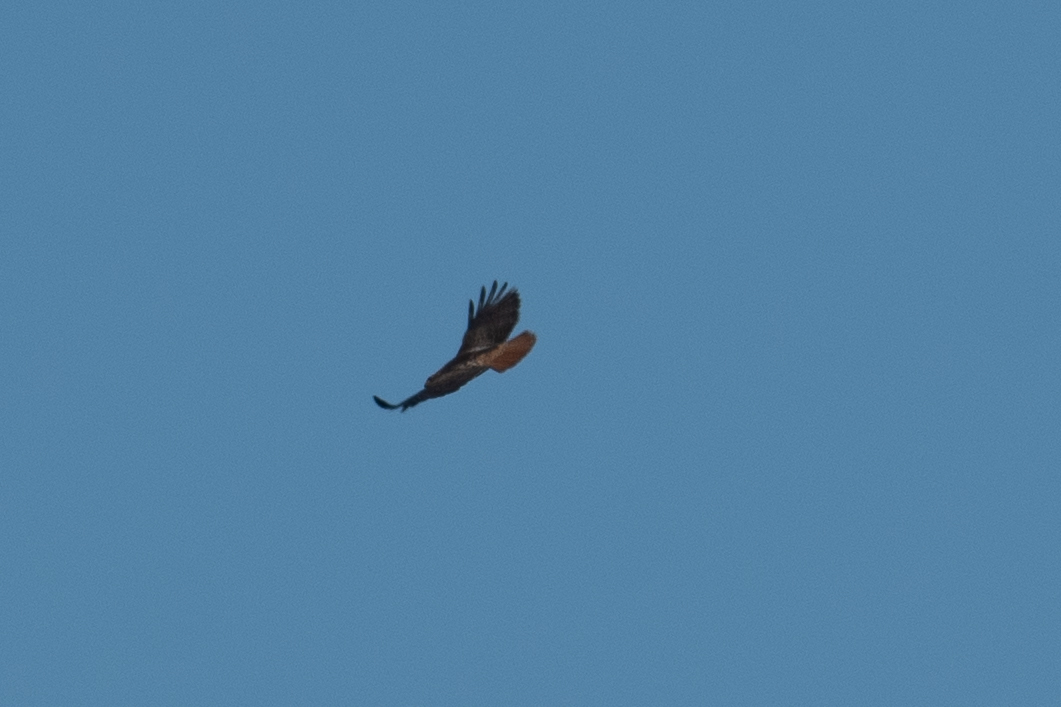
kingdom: Animalia
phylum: Chordata
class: Aves
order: Accipitriformes
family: Accipitridae
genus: Buteo
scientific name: Buteo jamaicensis
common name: Red-tailed hawk
